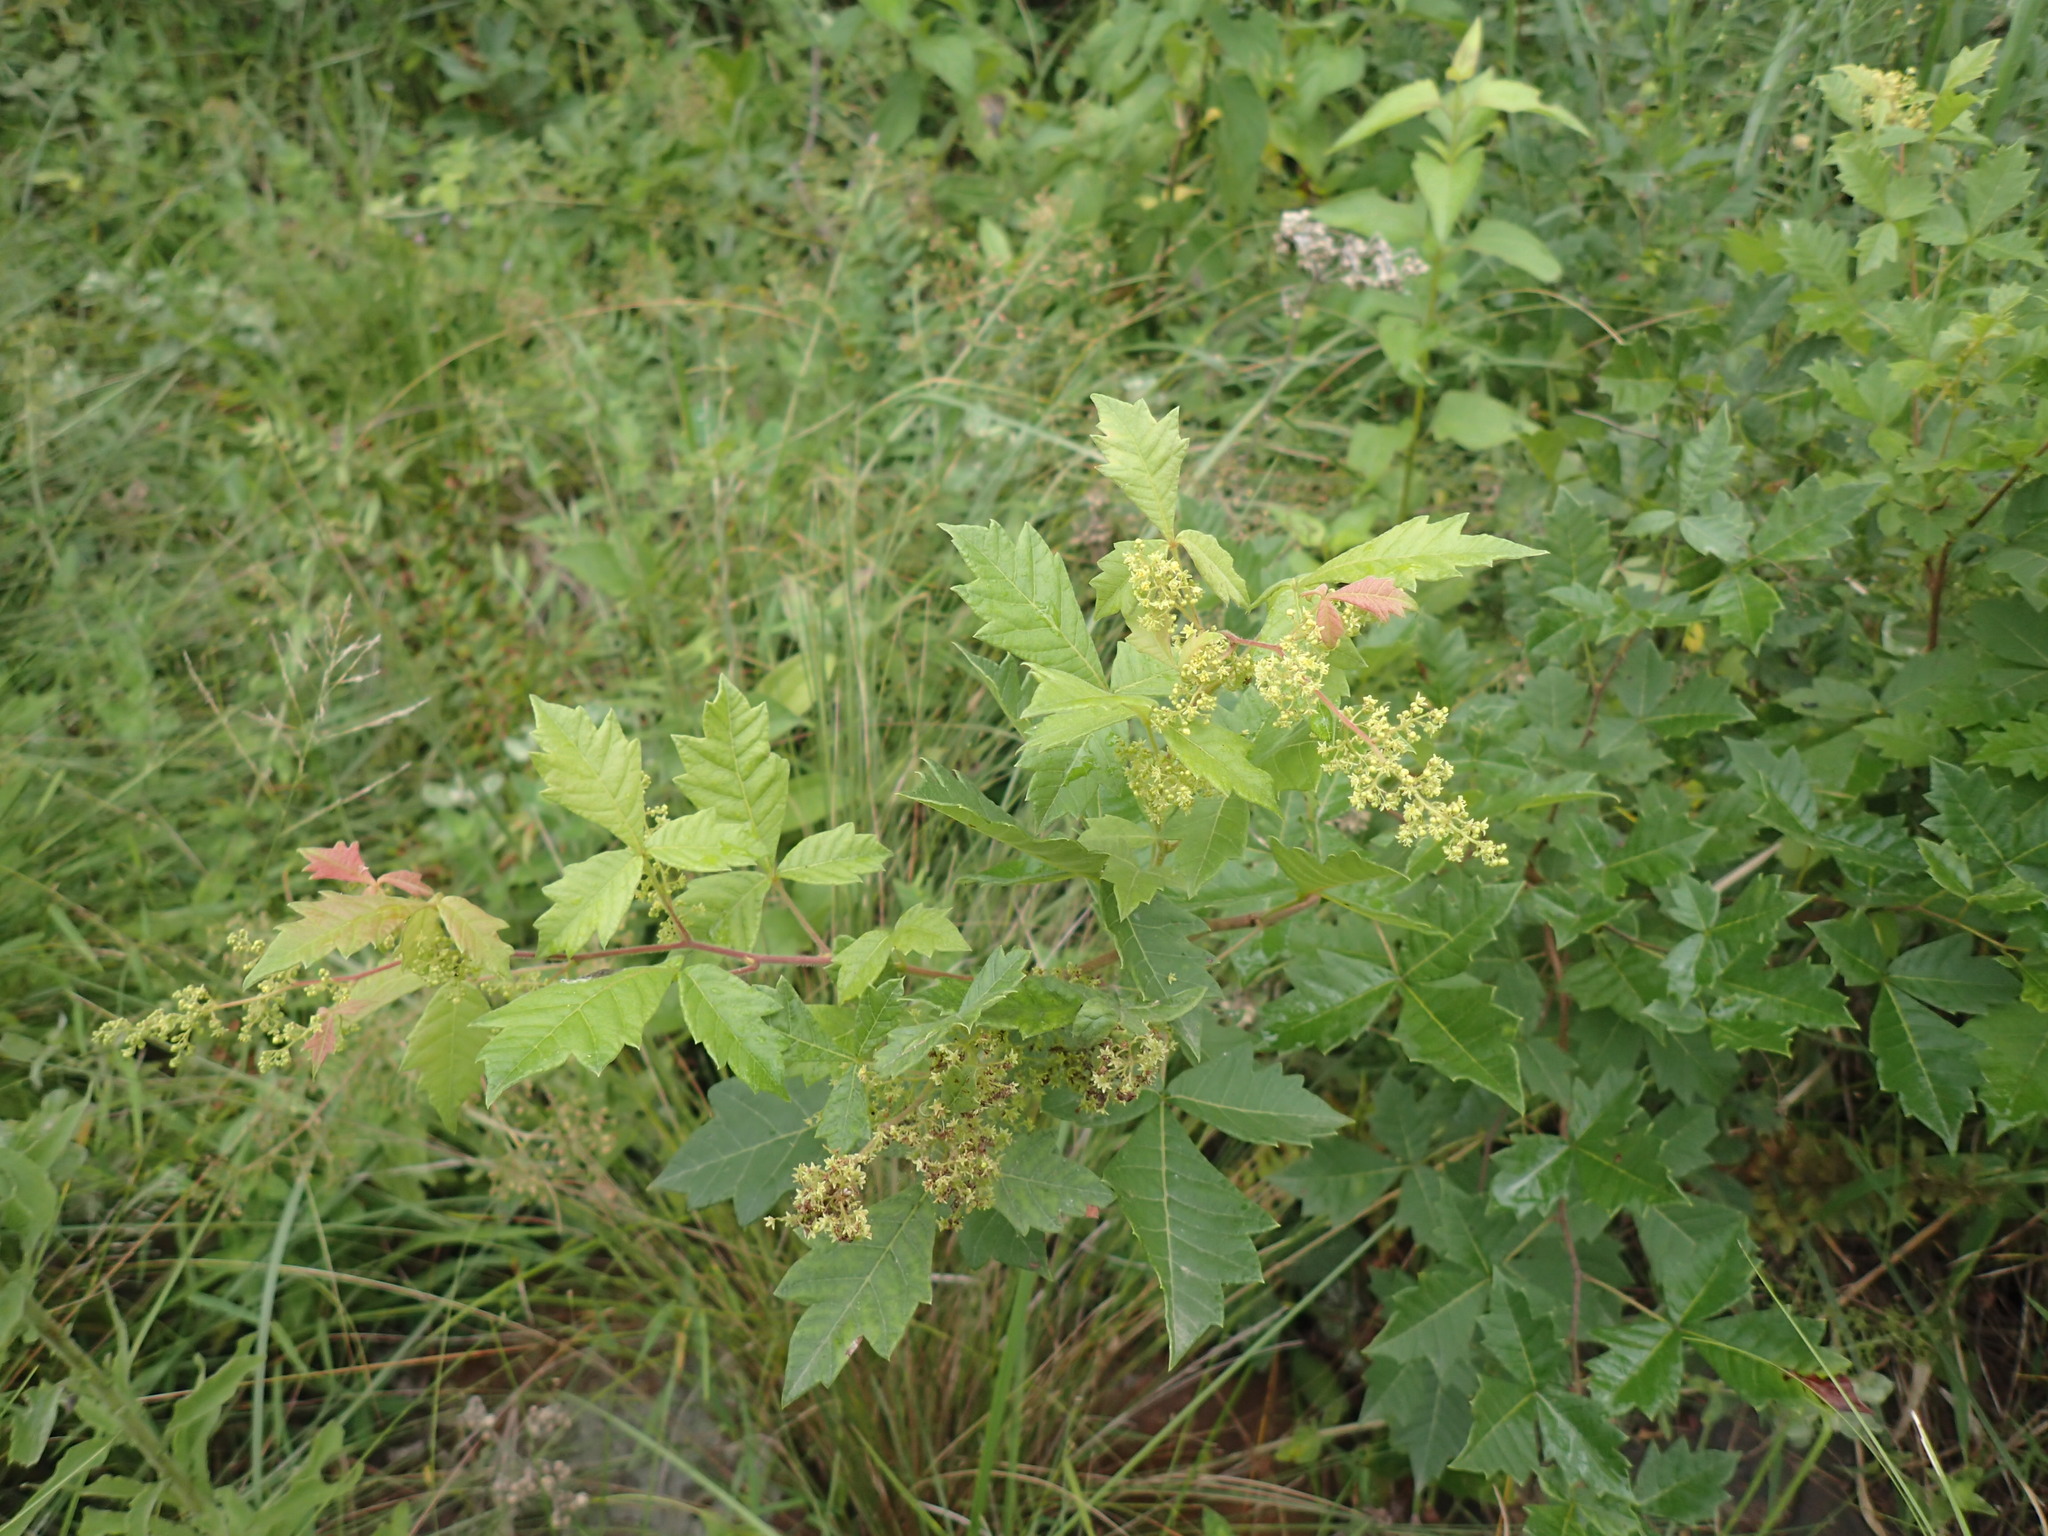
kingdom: Plantae
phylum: Tracheophyta
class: Magnoliopsida
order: Sapindales
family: Anacardiaceae
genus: Searsia
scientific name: Searsia dentata
